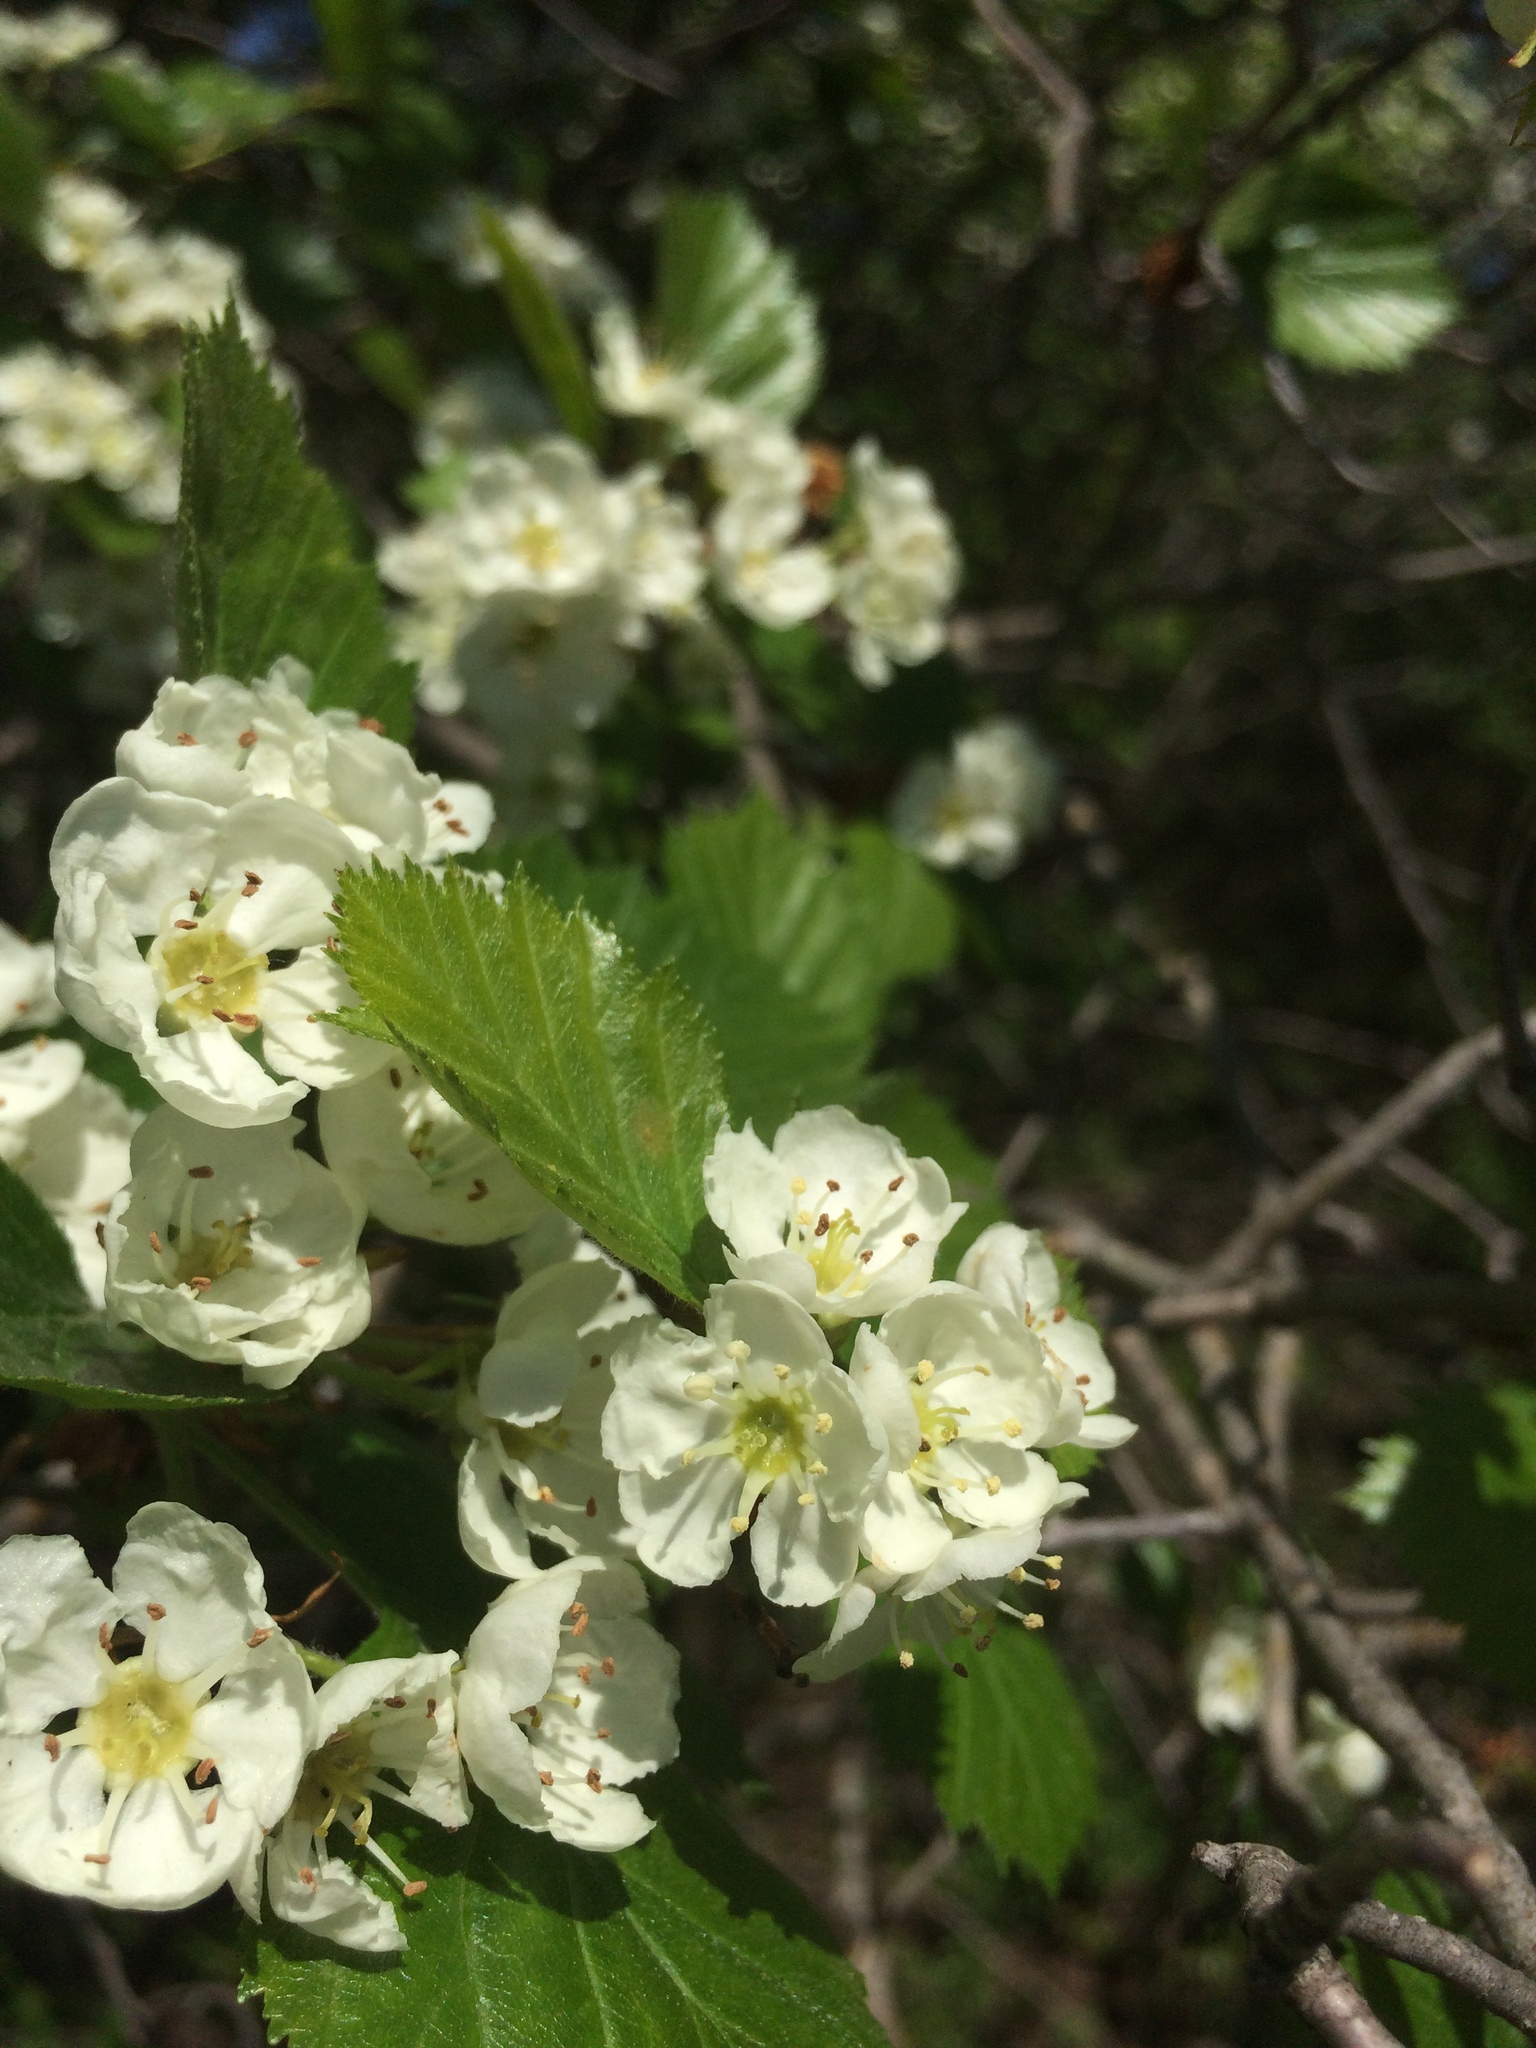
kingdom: Plantae
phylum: Tracheophyta
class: Magnoliopsida
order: Rosales
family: Rosaceae
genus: Crataegus
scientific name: Crataegus chrysocarpa
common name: Fire-berry hawthorn
